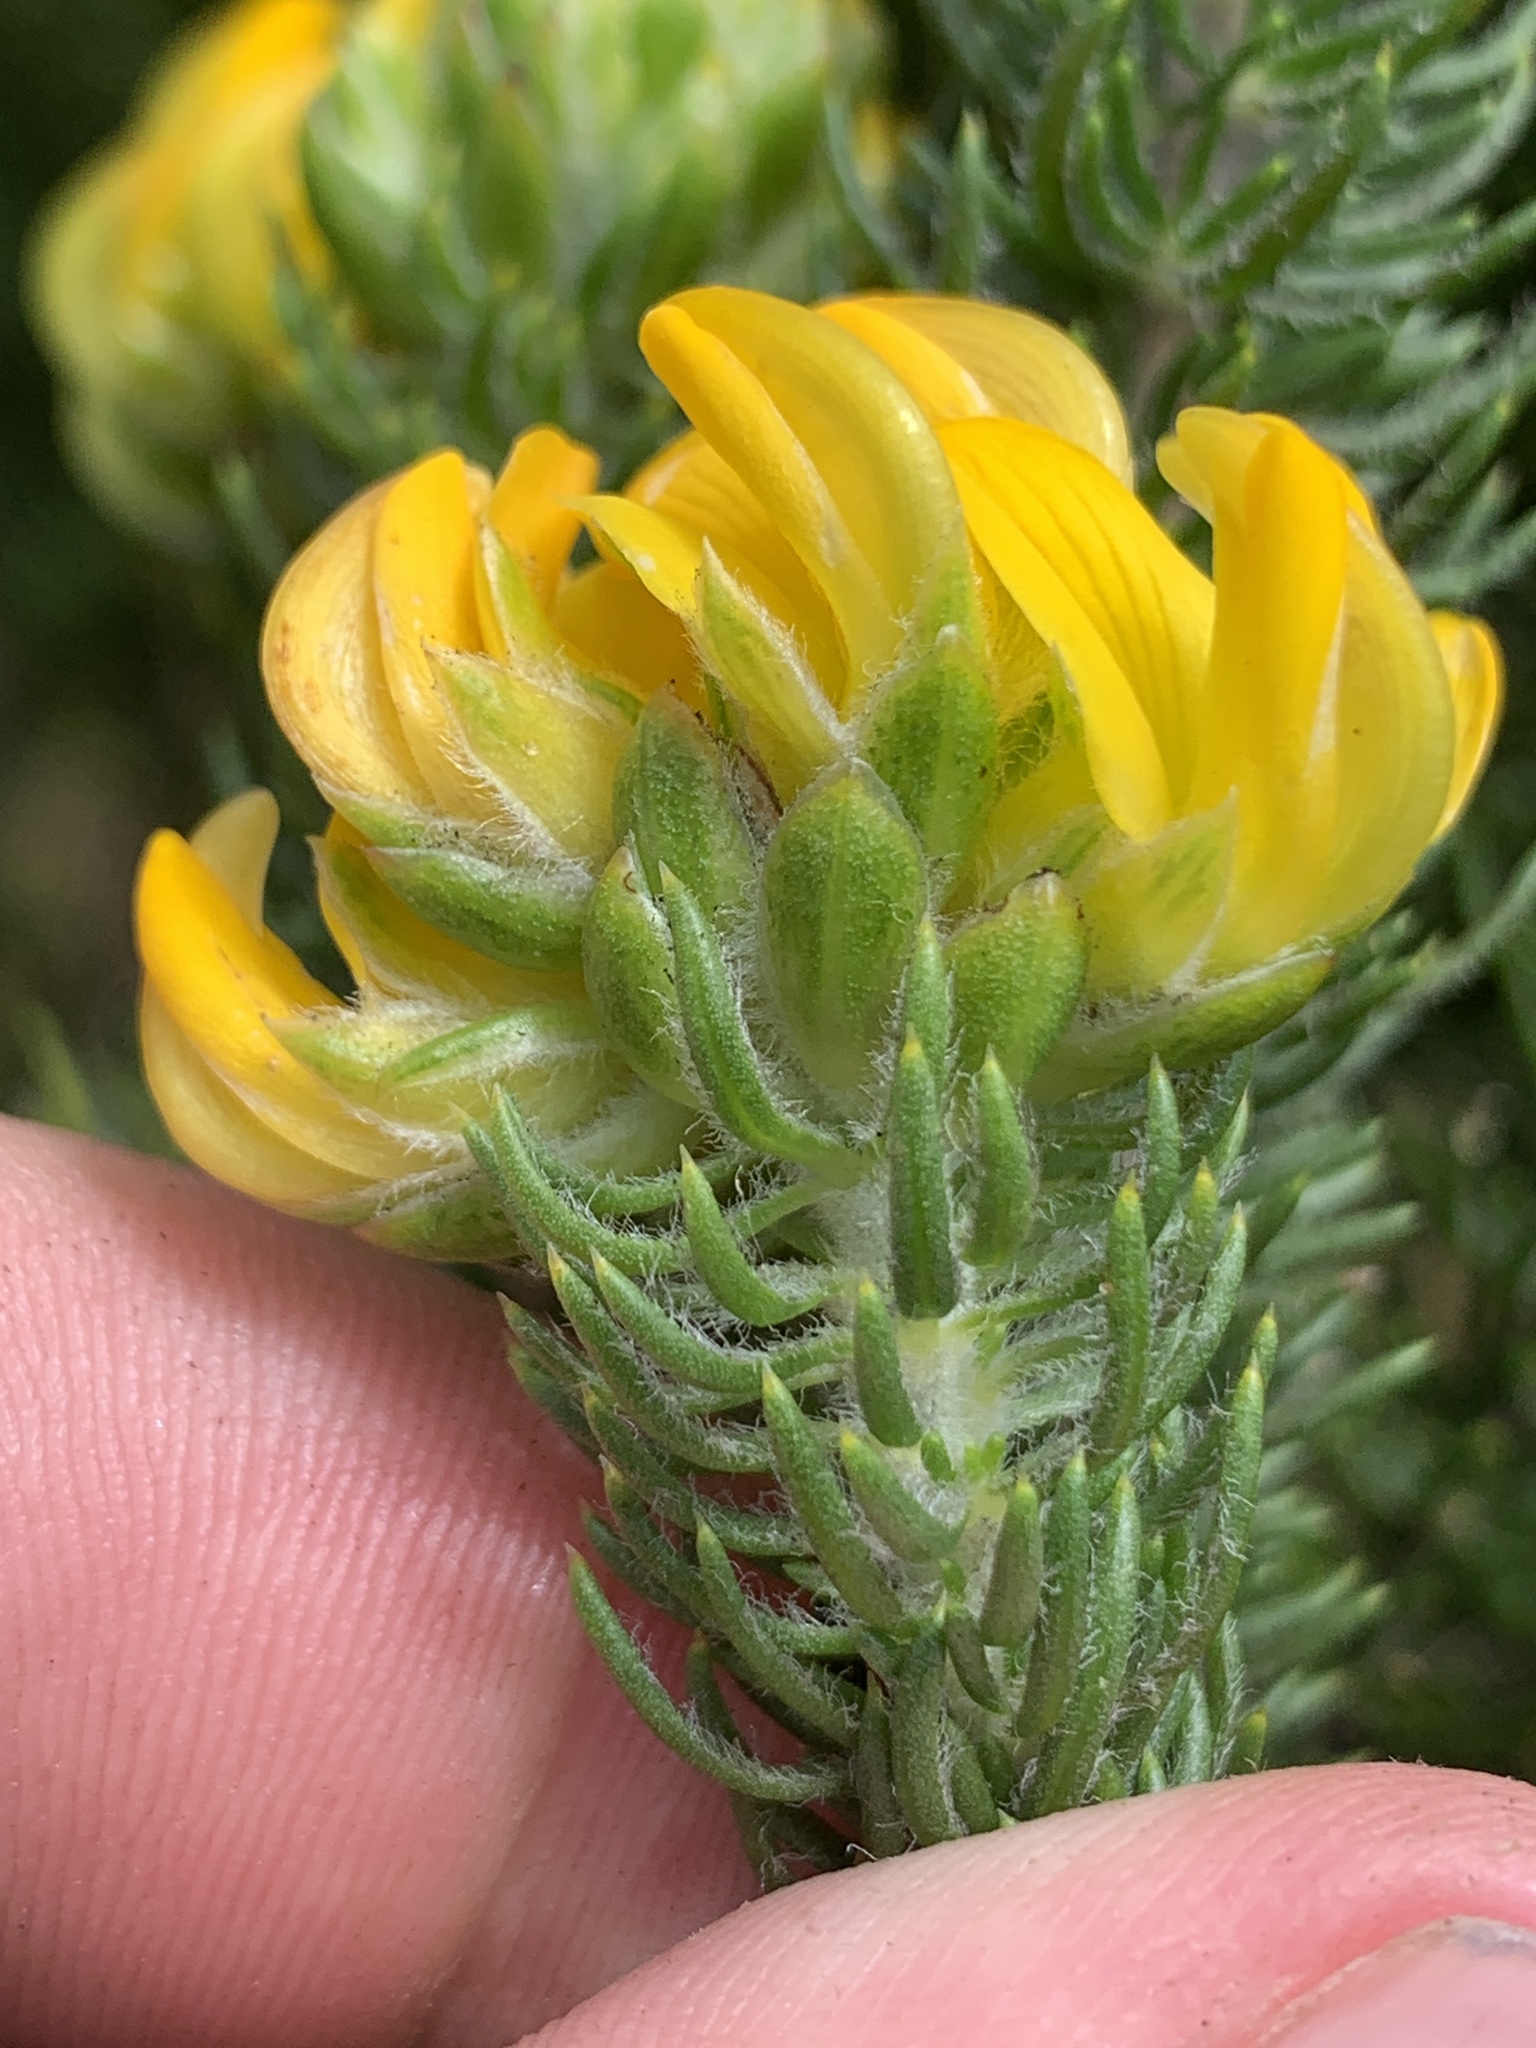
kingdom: Plantae
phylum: Tracheophyta
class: Magnoliopsida
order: Fabales
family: Fabaceae
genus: Aspalathus
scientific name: Aspalathus capitata
